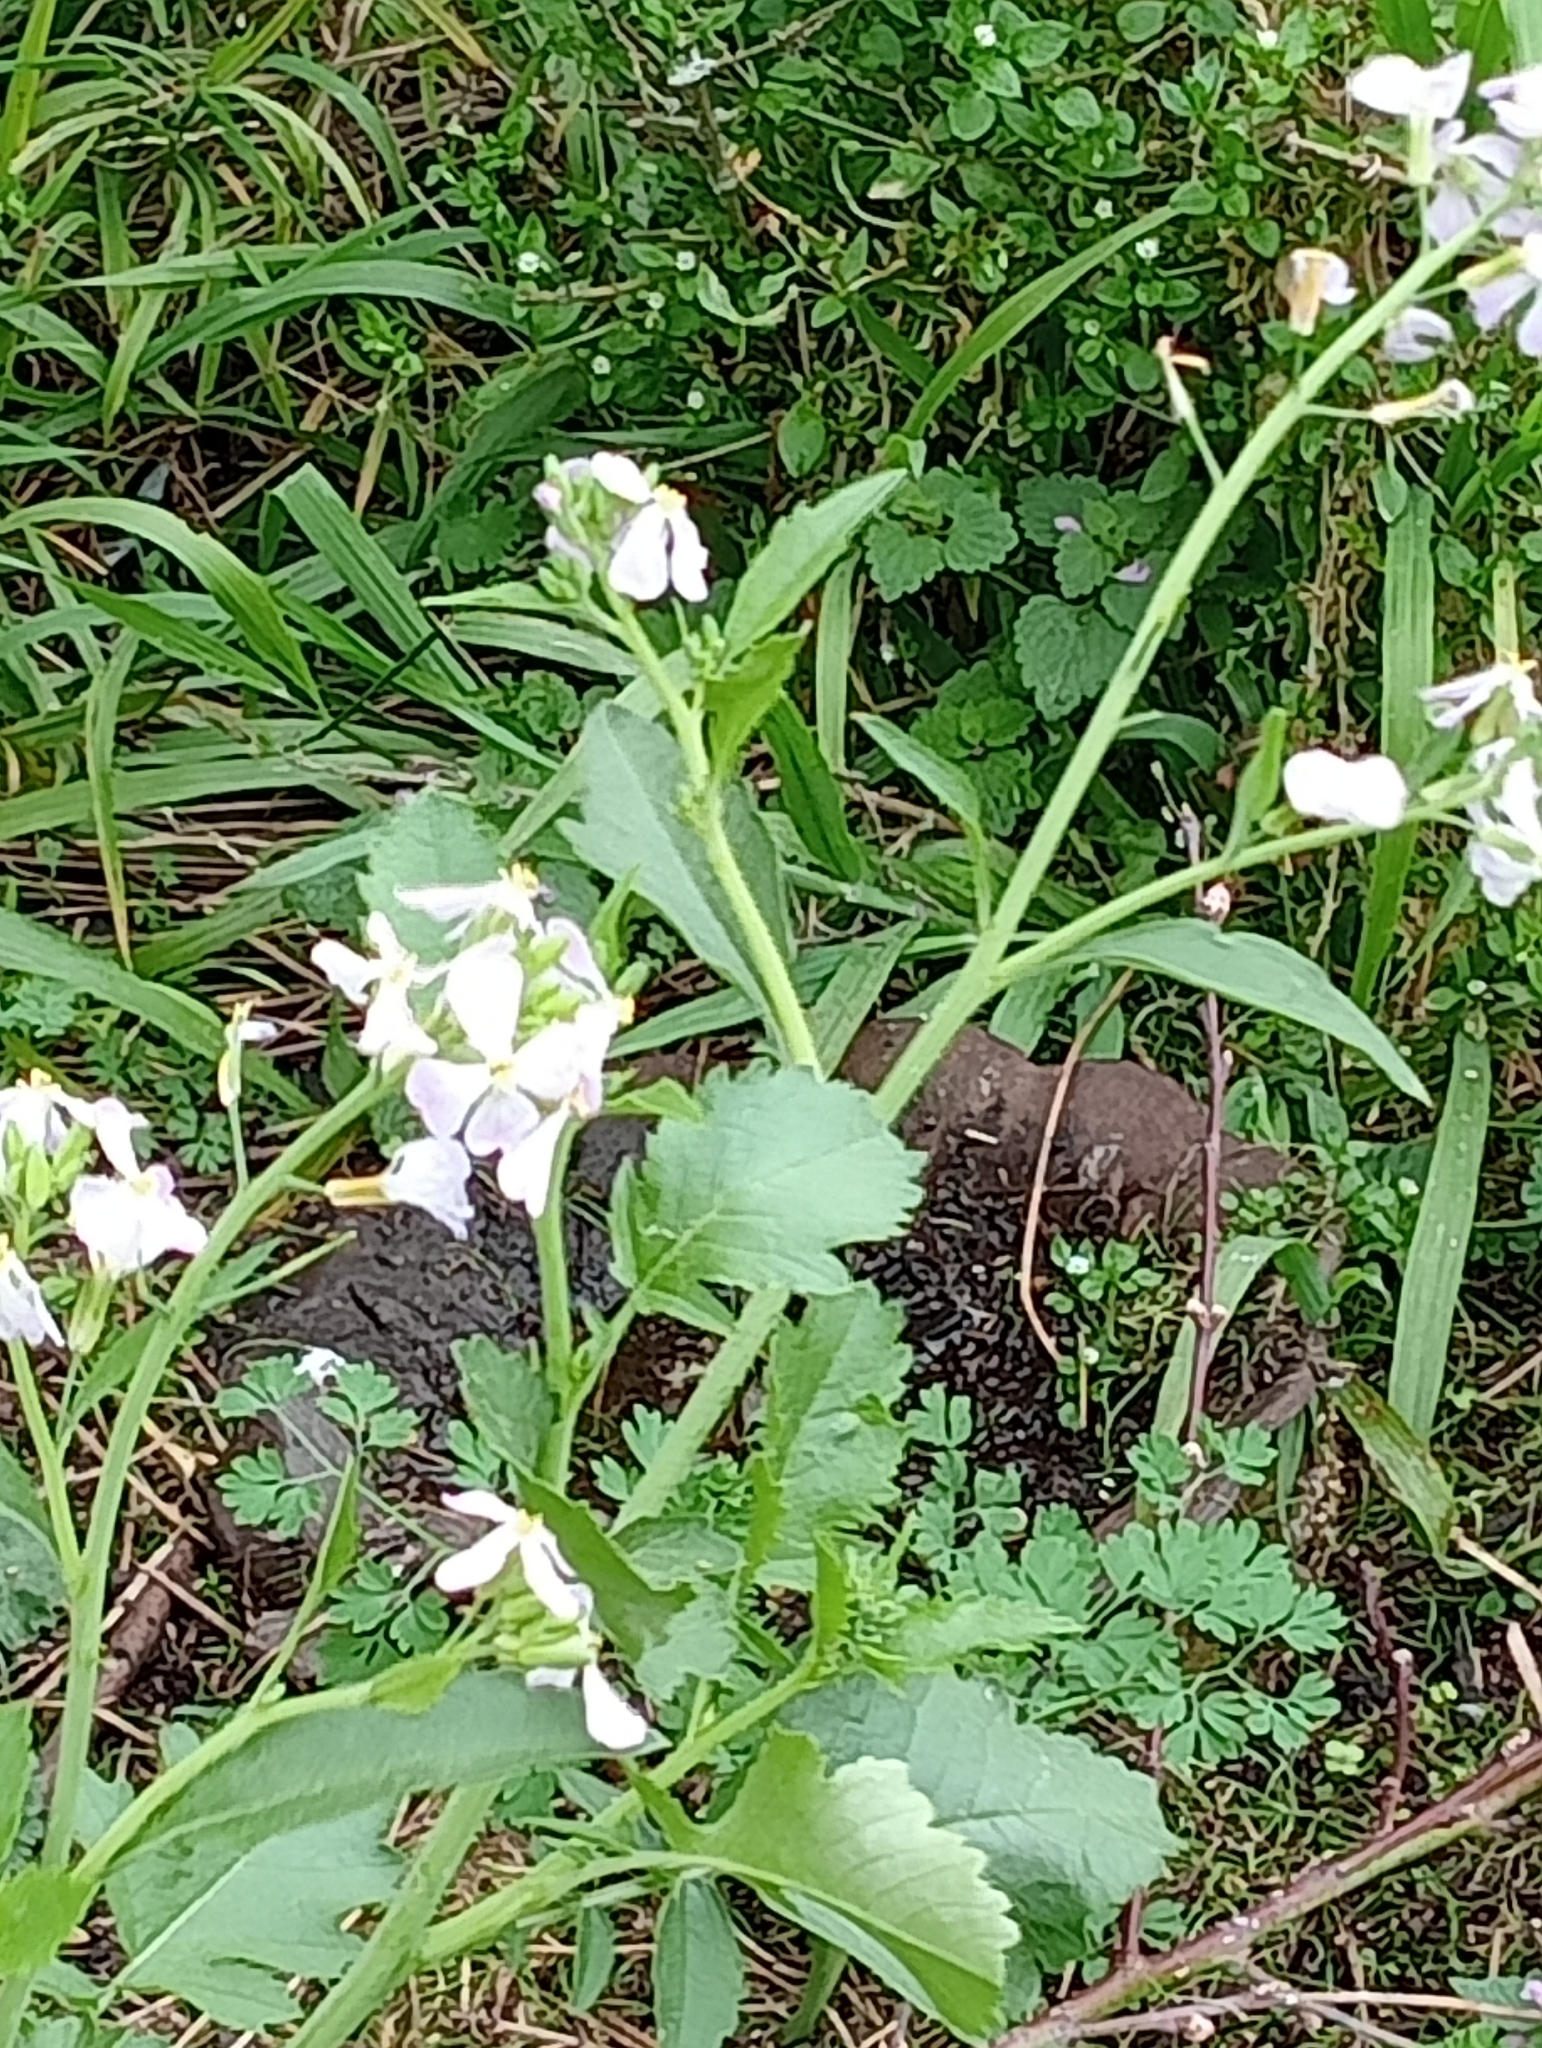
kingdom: Plantae
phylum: Tracheophyta
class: Magnoliopsida
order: Brassicales
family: Brassicaceae
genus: Raphanus
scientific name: Raphanus sativus
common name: Cultivated radish
